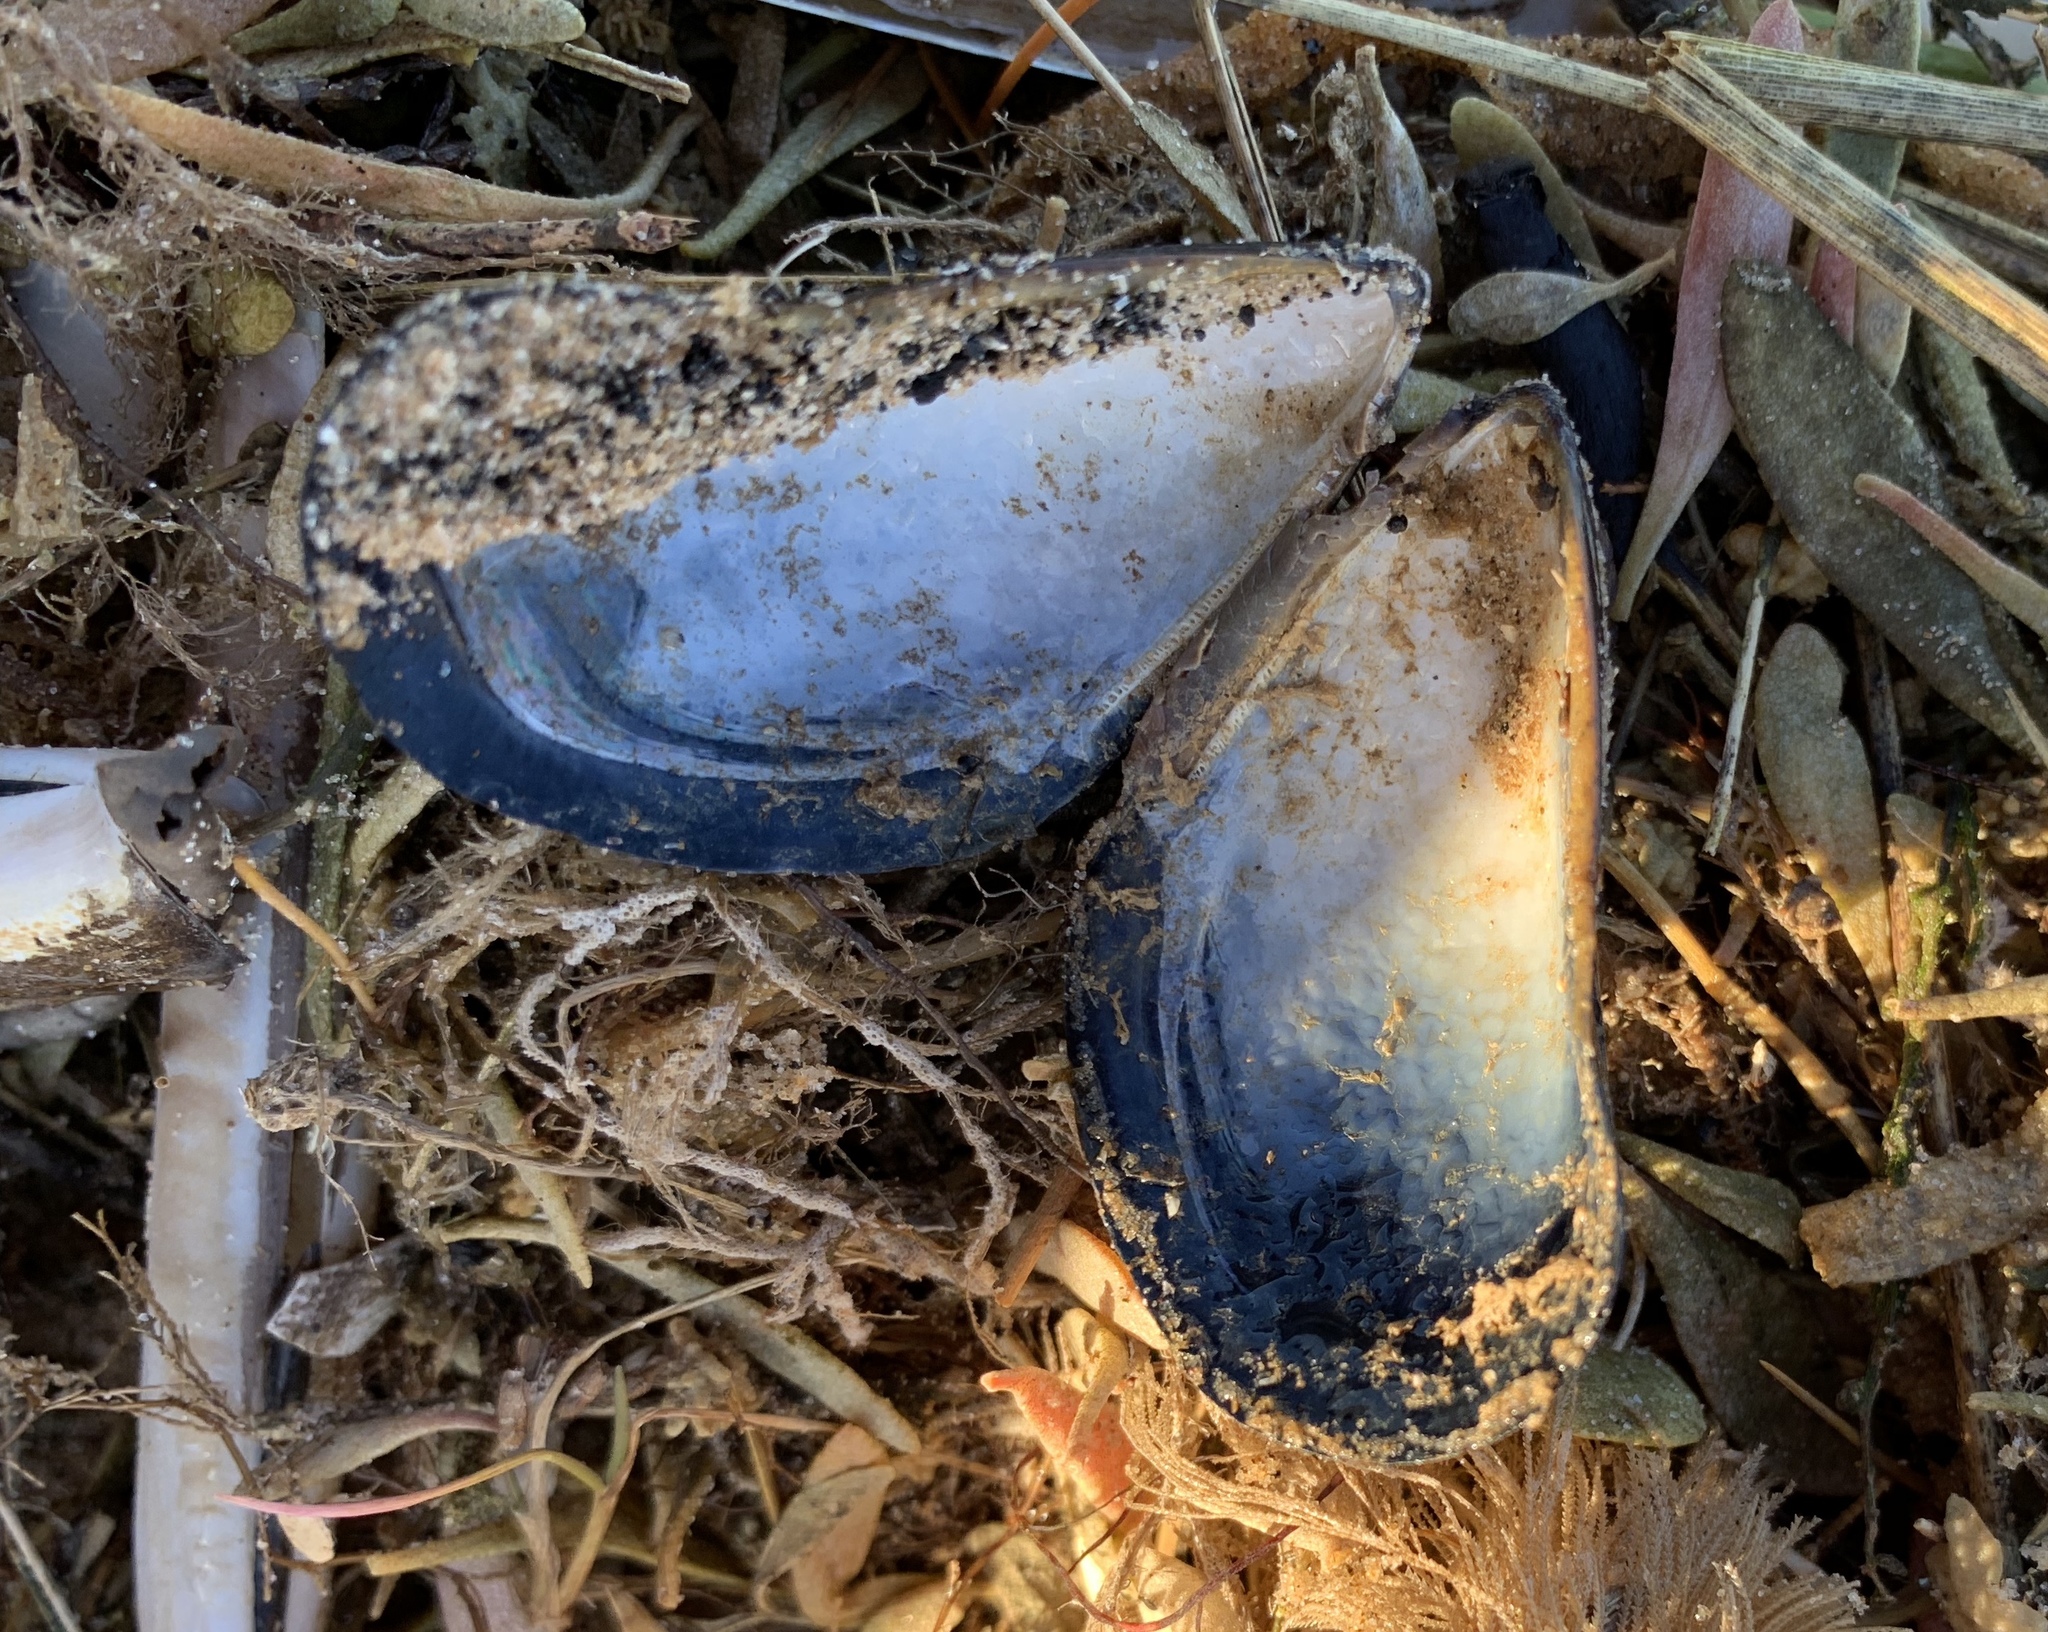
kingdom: Animalia
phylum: Mollusca
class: Bivalvia
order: Mytilida
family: Mytilidae
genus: Mytilus
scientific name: Mytilus edulis
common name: Blue mussel
